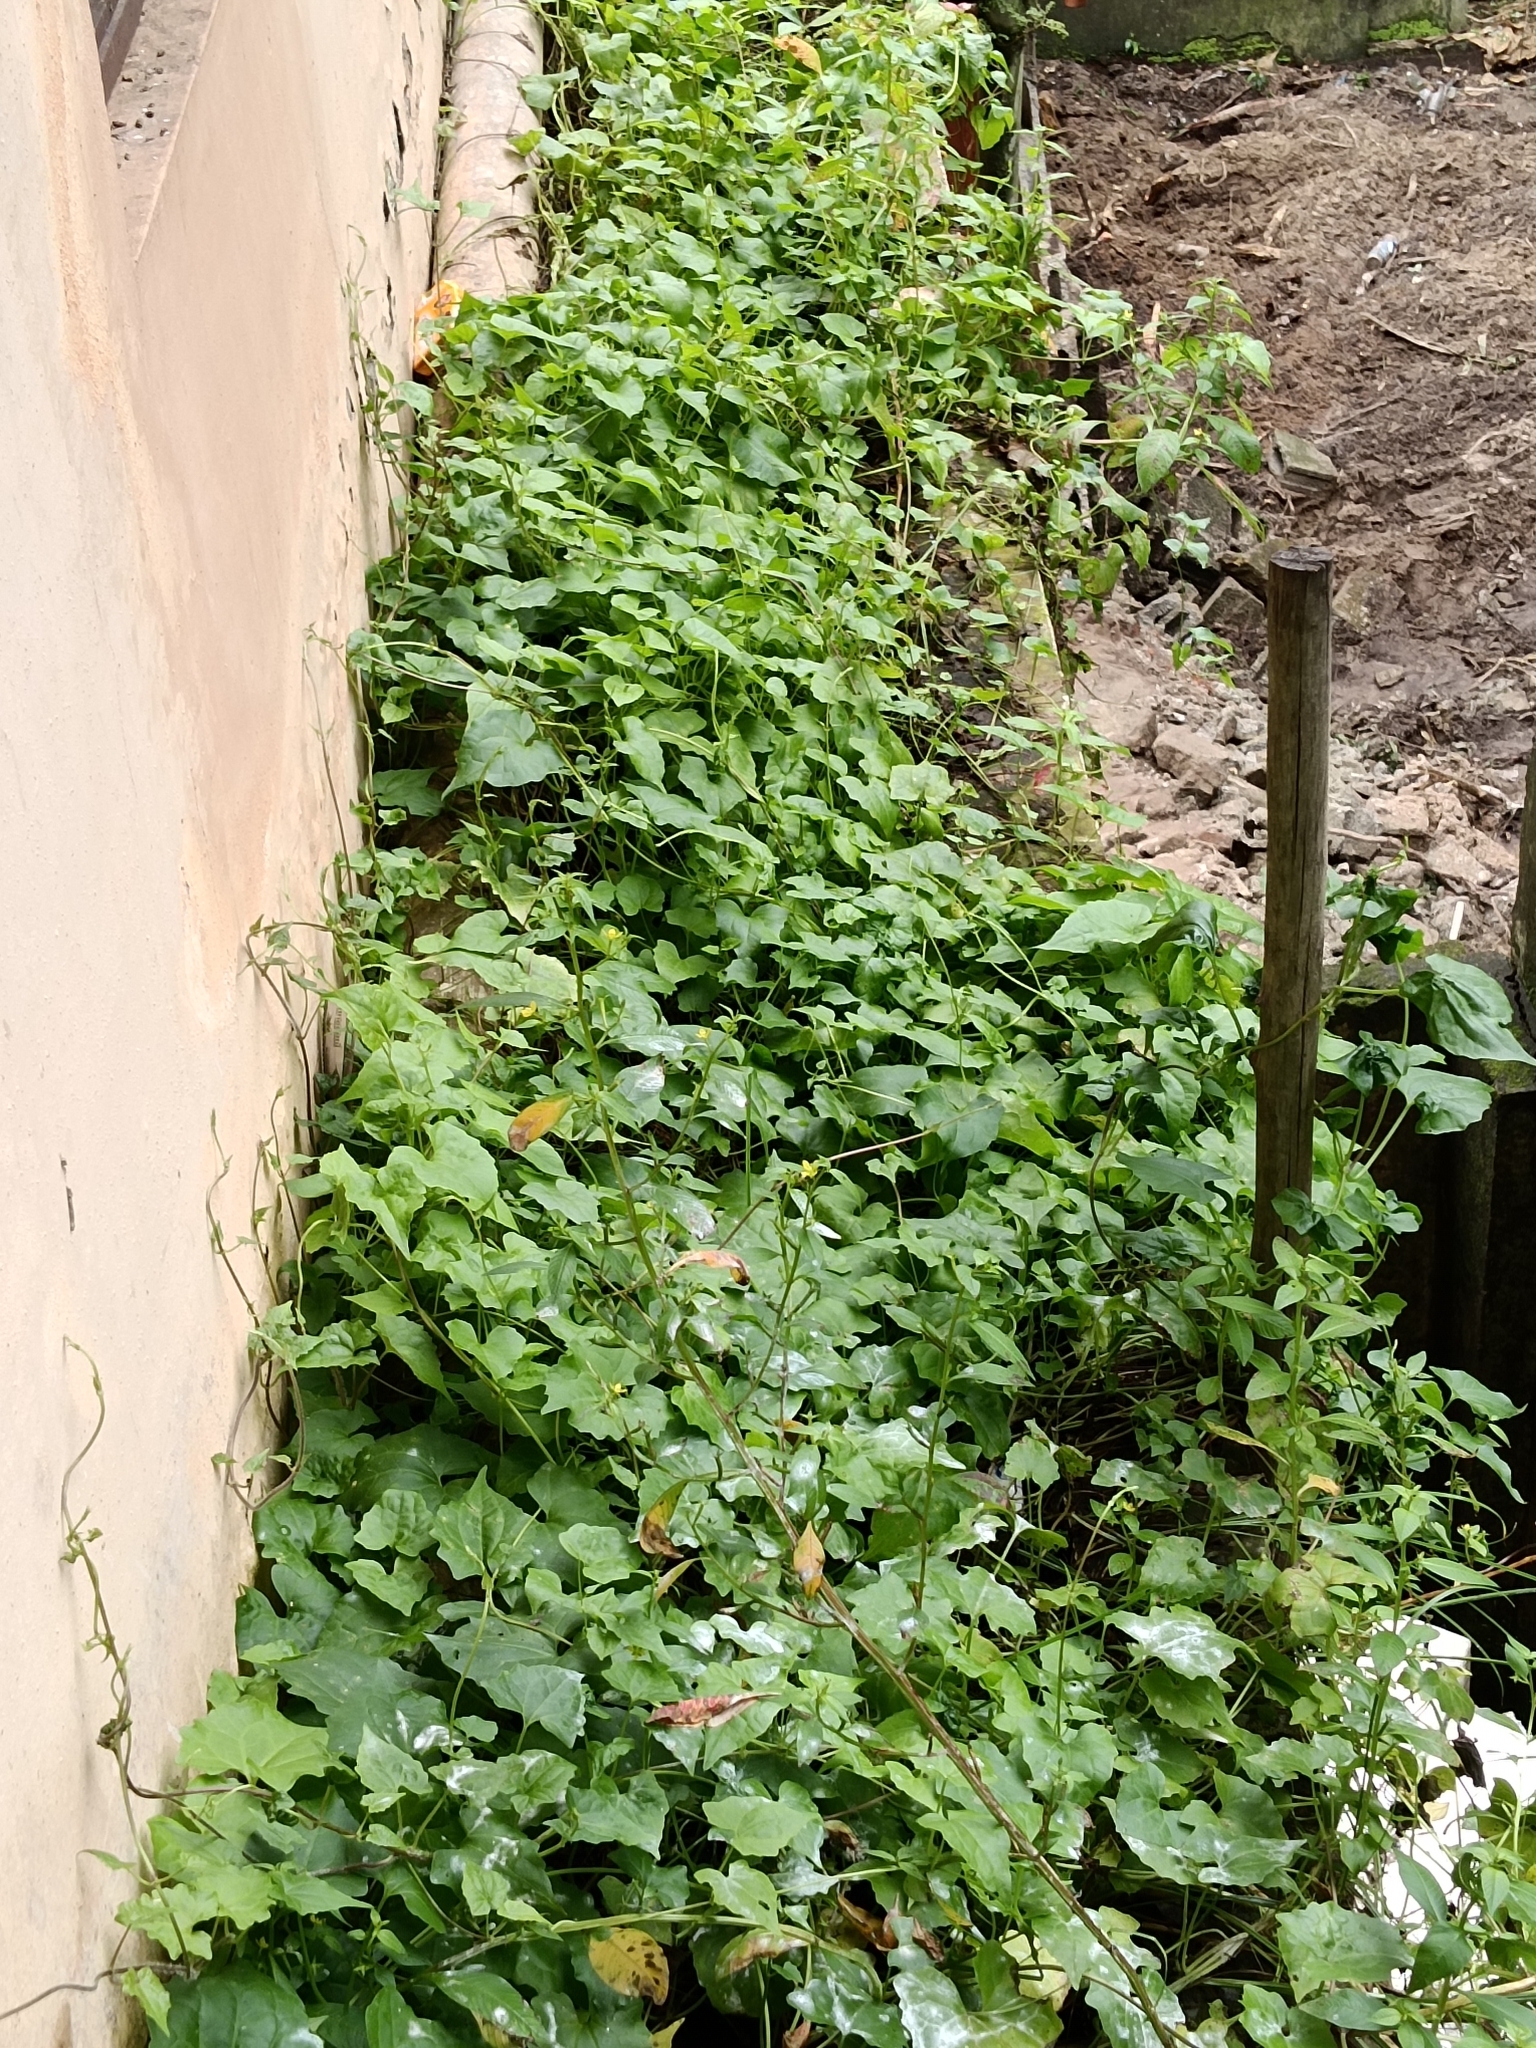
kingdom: Plantae
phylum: Tracheophyta
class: Magnoliopsida
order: Asterales
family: Asteraceae
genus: Mikania
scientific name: Mikania micrantha
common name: Mile-a-minute
